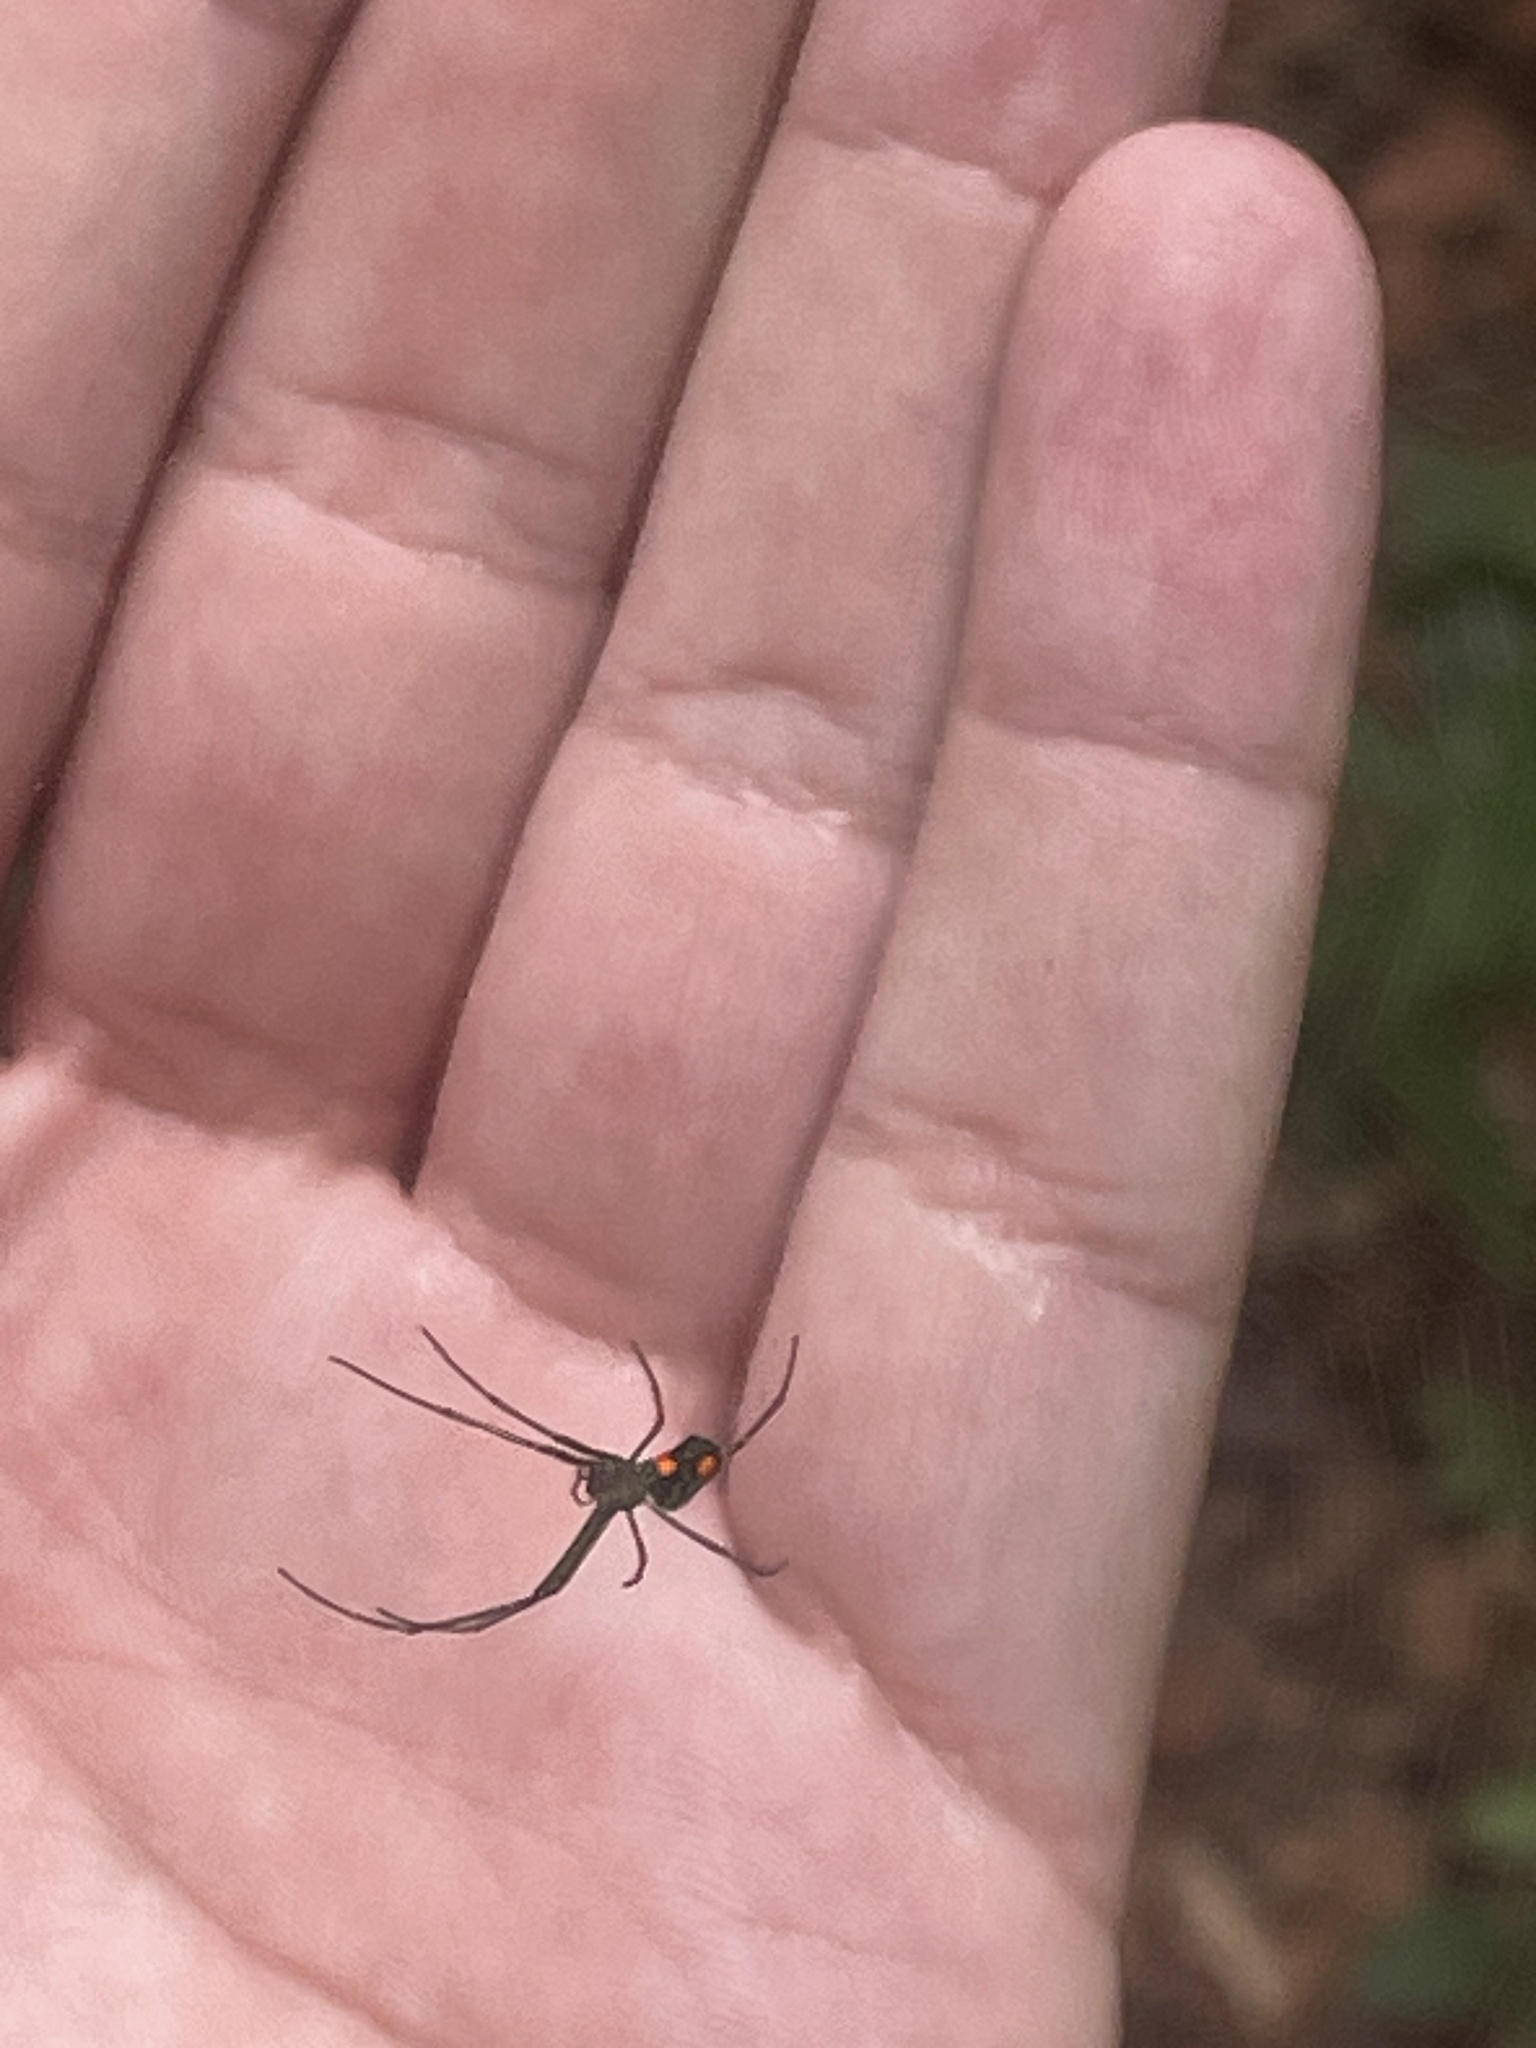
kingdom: Animalia
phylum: Arthropoda
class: Arachnida
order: Araneae
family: Tetragnathidae
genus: Leucauge
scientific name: Leucauge argyrobapta
